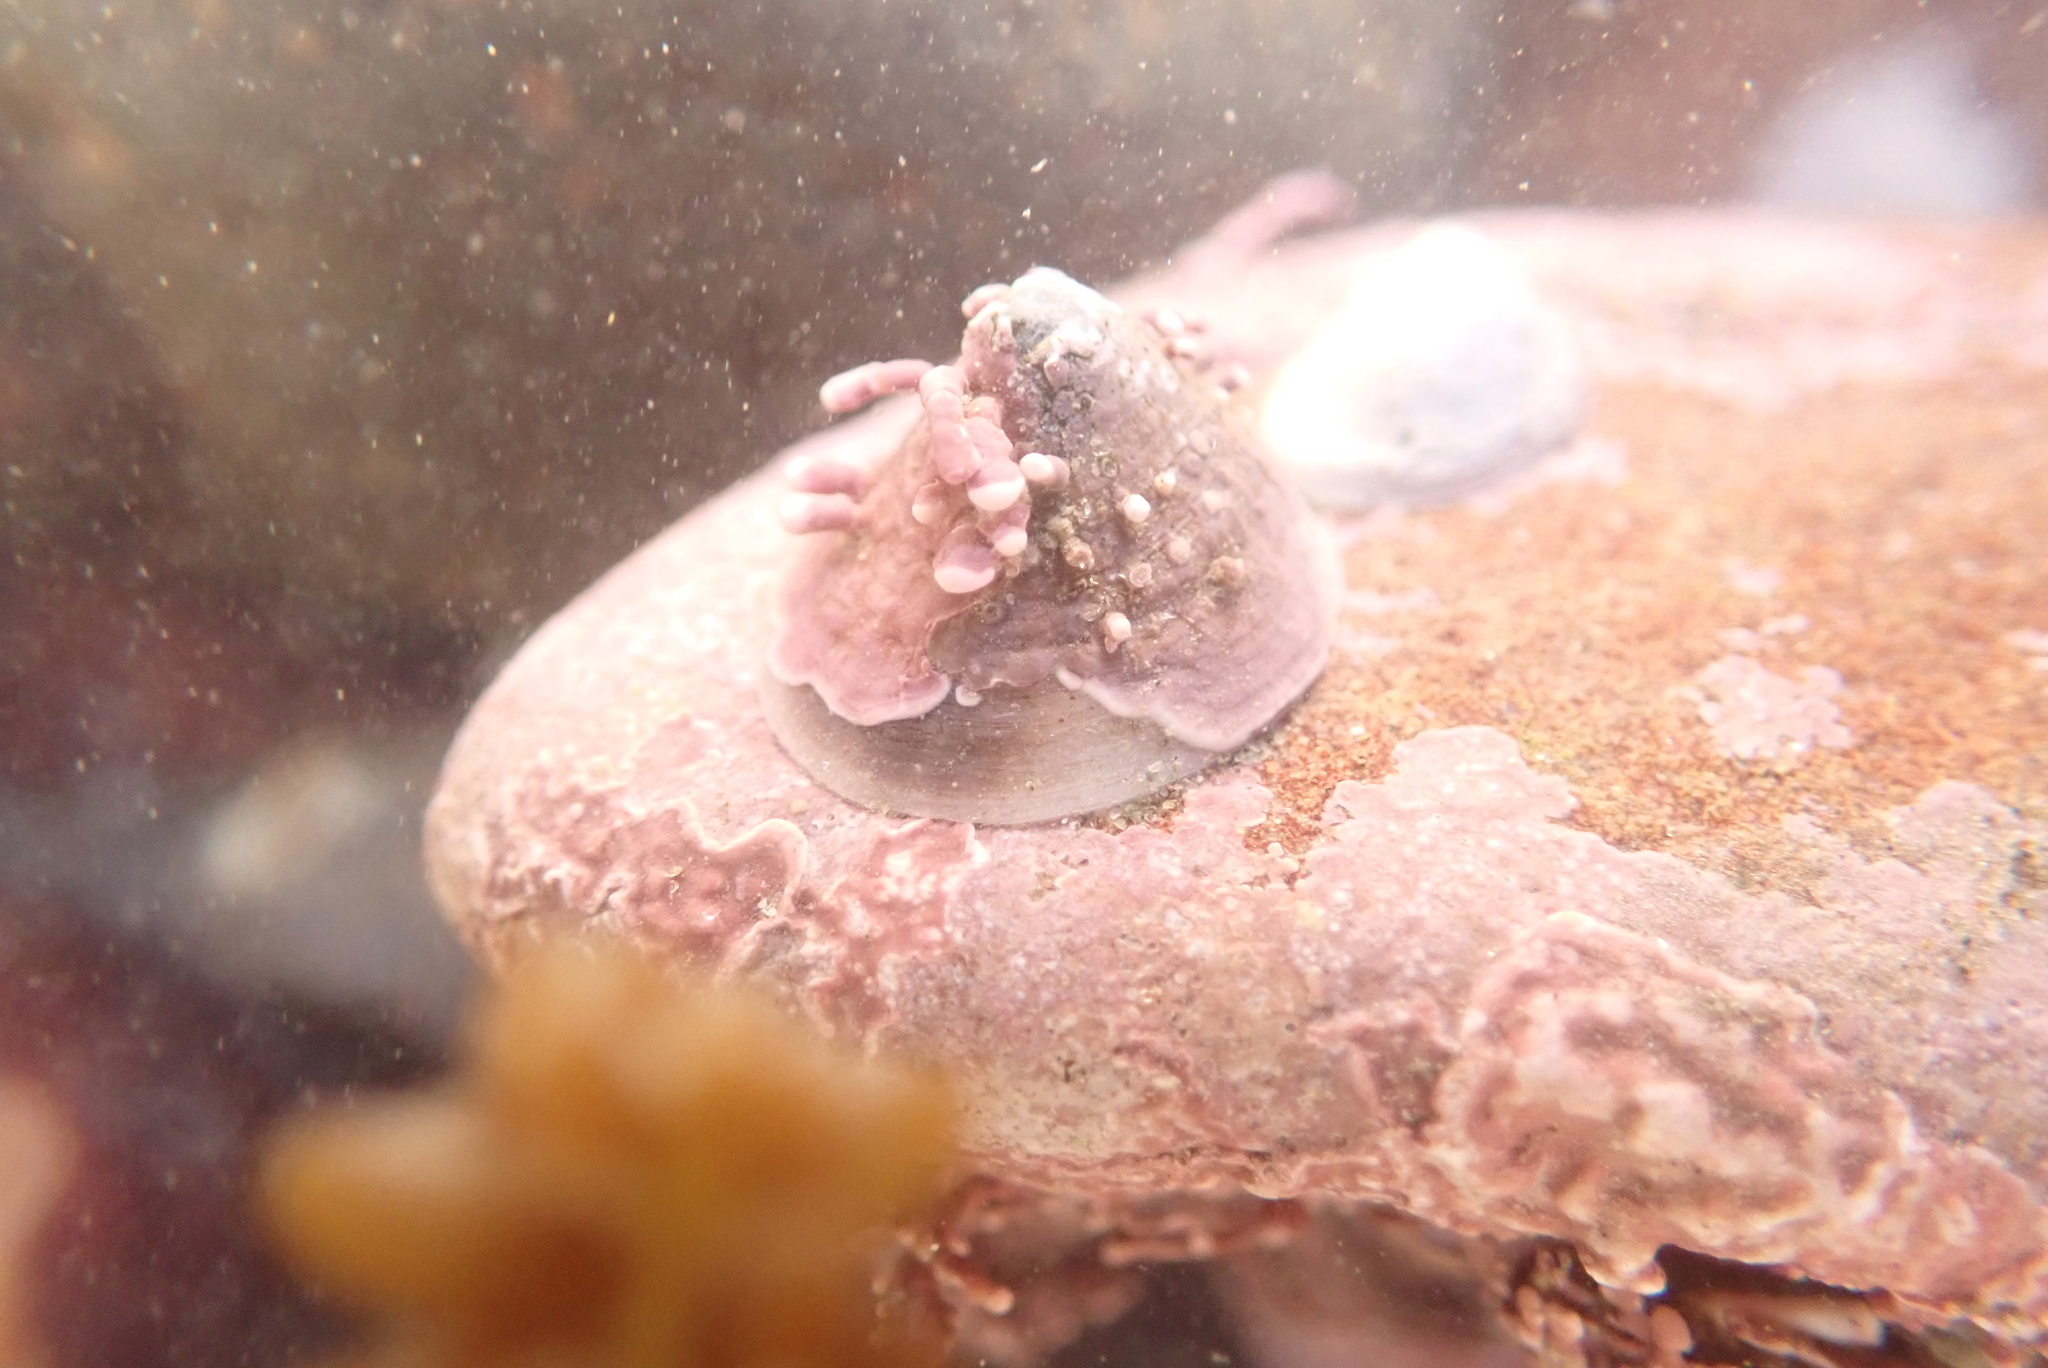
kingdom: Animalia
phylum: Mollusca
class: Gastropoda
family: Acmaeidae
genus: Acmaea
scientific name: Acmaea mitra
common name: Pacific white cap limpet
